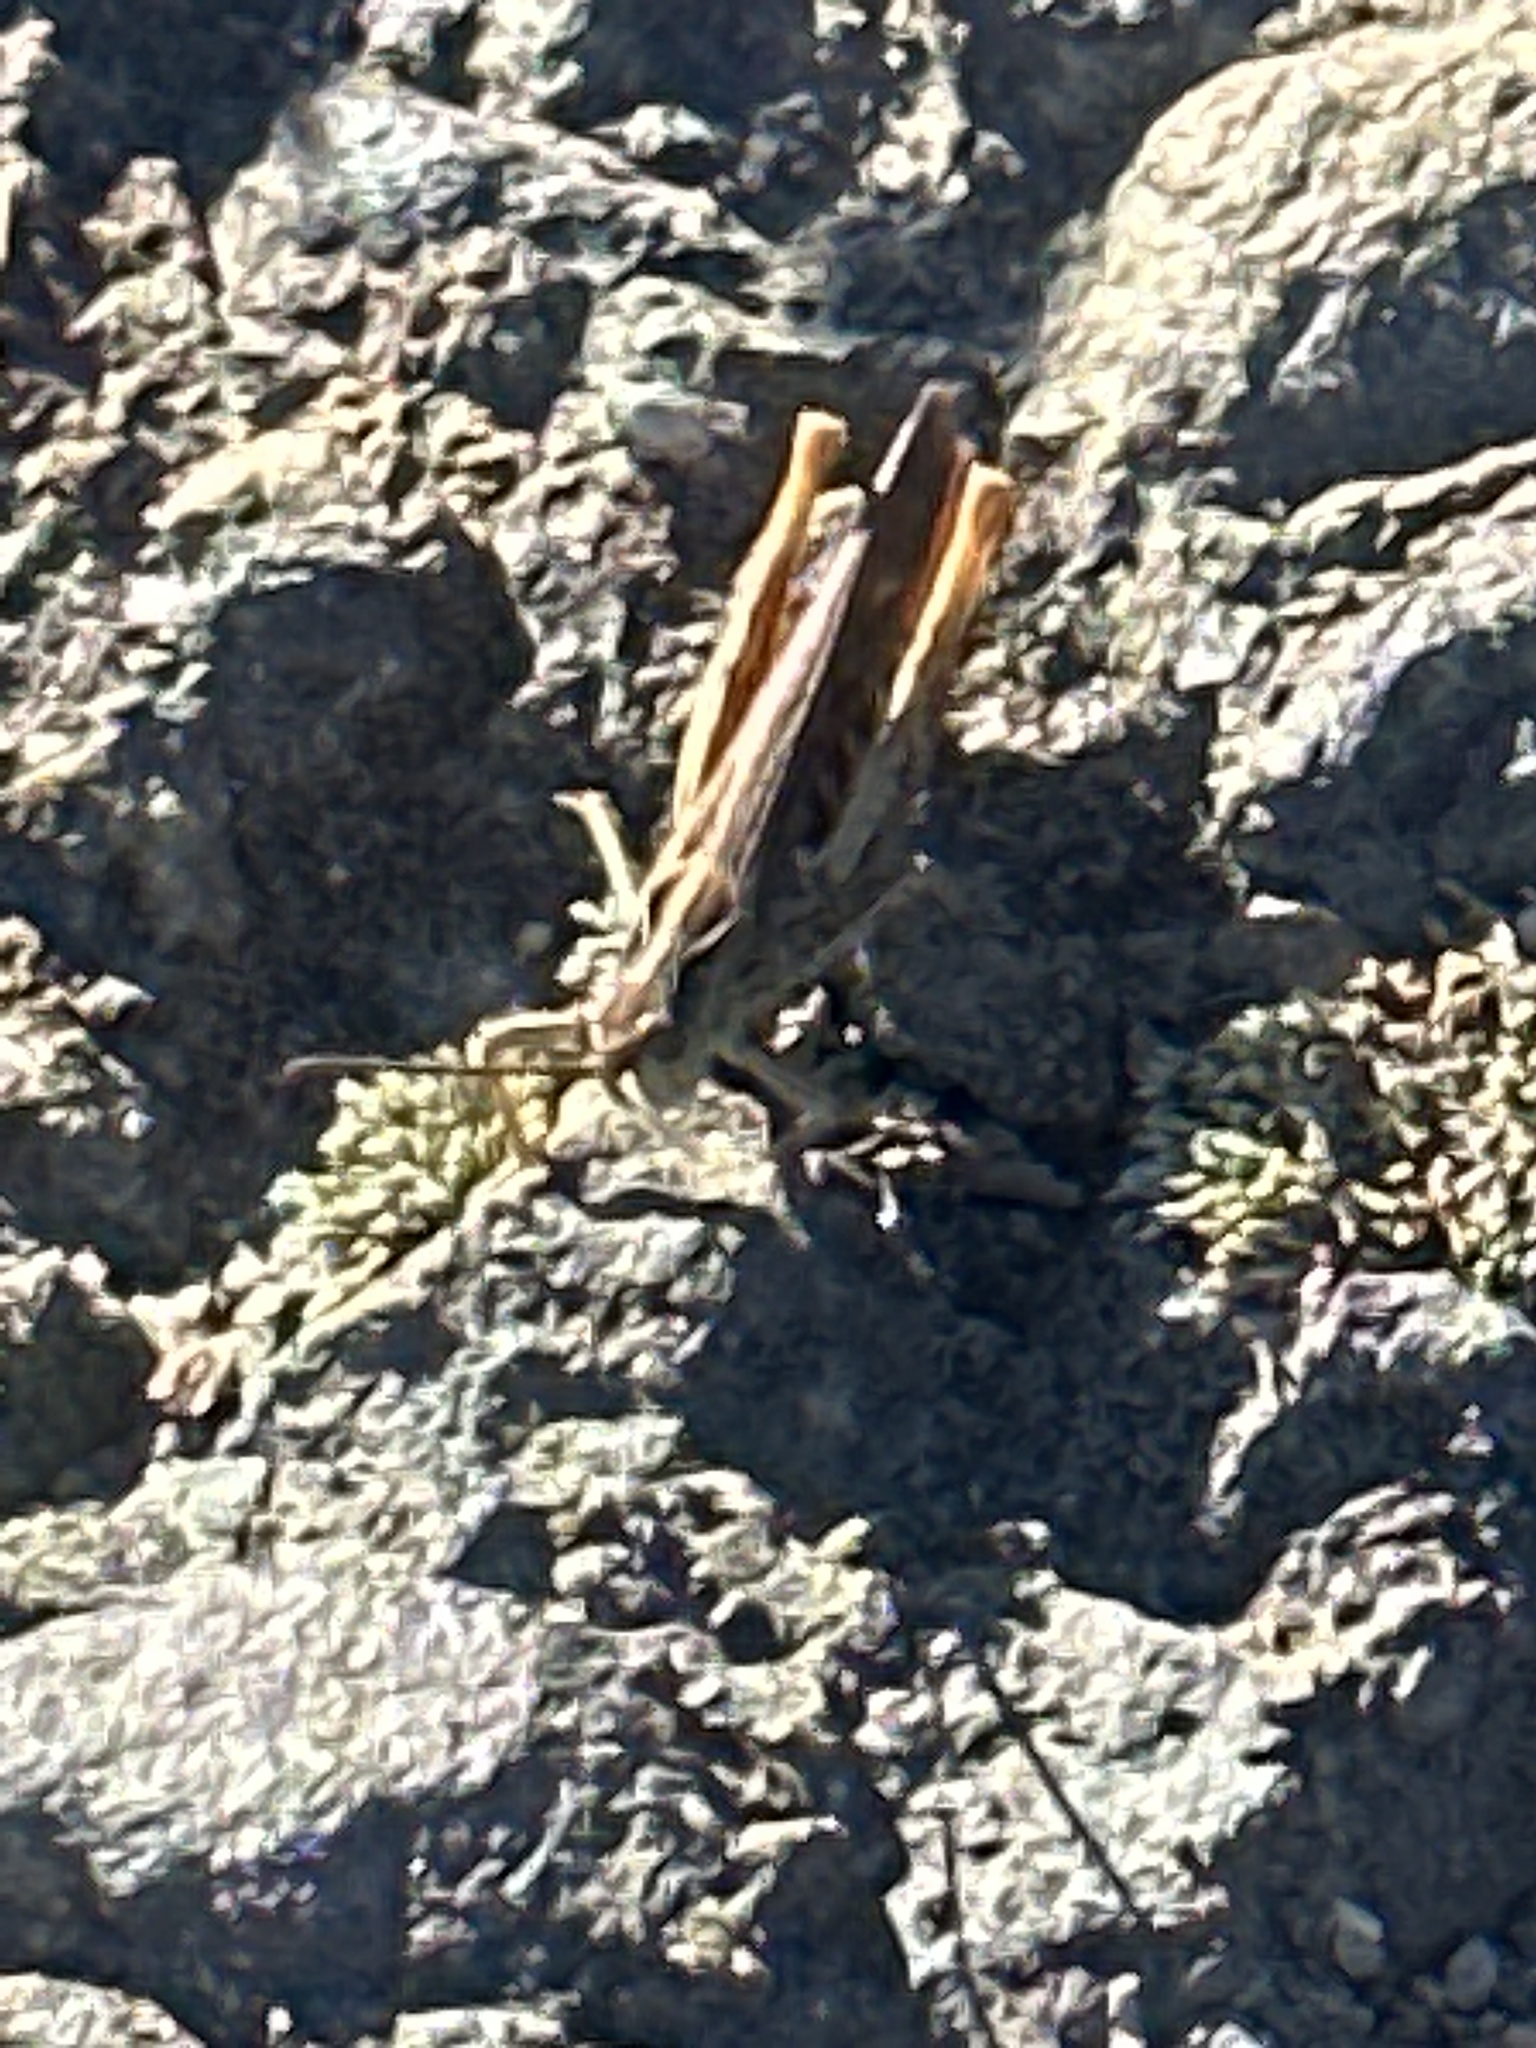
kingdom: Animalia
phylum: Arthropoda
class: Insecta
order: Orthoptera
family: Acrididae
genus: Chorthippus
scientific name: Chorthippus brunneus
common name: Field grasshopper
